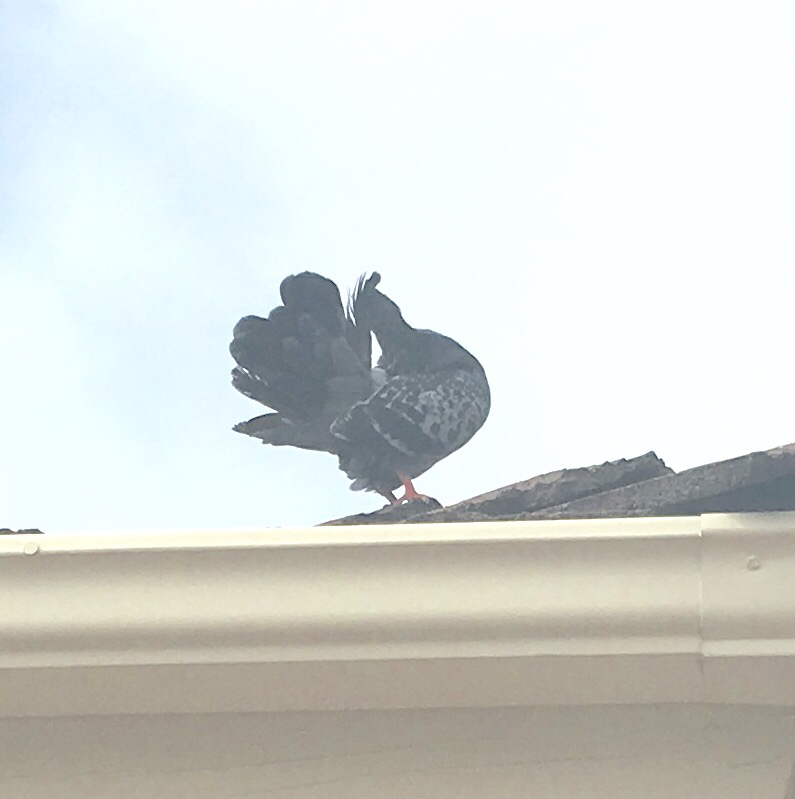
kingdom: Animalia
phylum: Chordata
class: Aves
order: Columbiformes
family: Columbidae
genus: Columba
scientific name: Columba livia
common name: Rock pigeon
